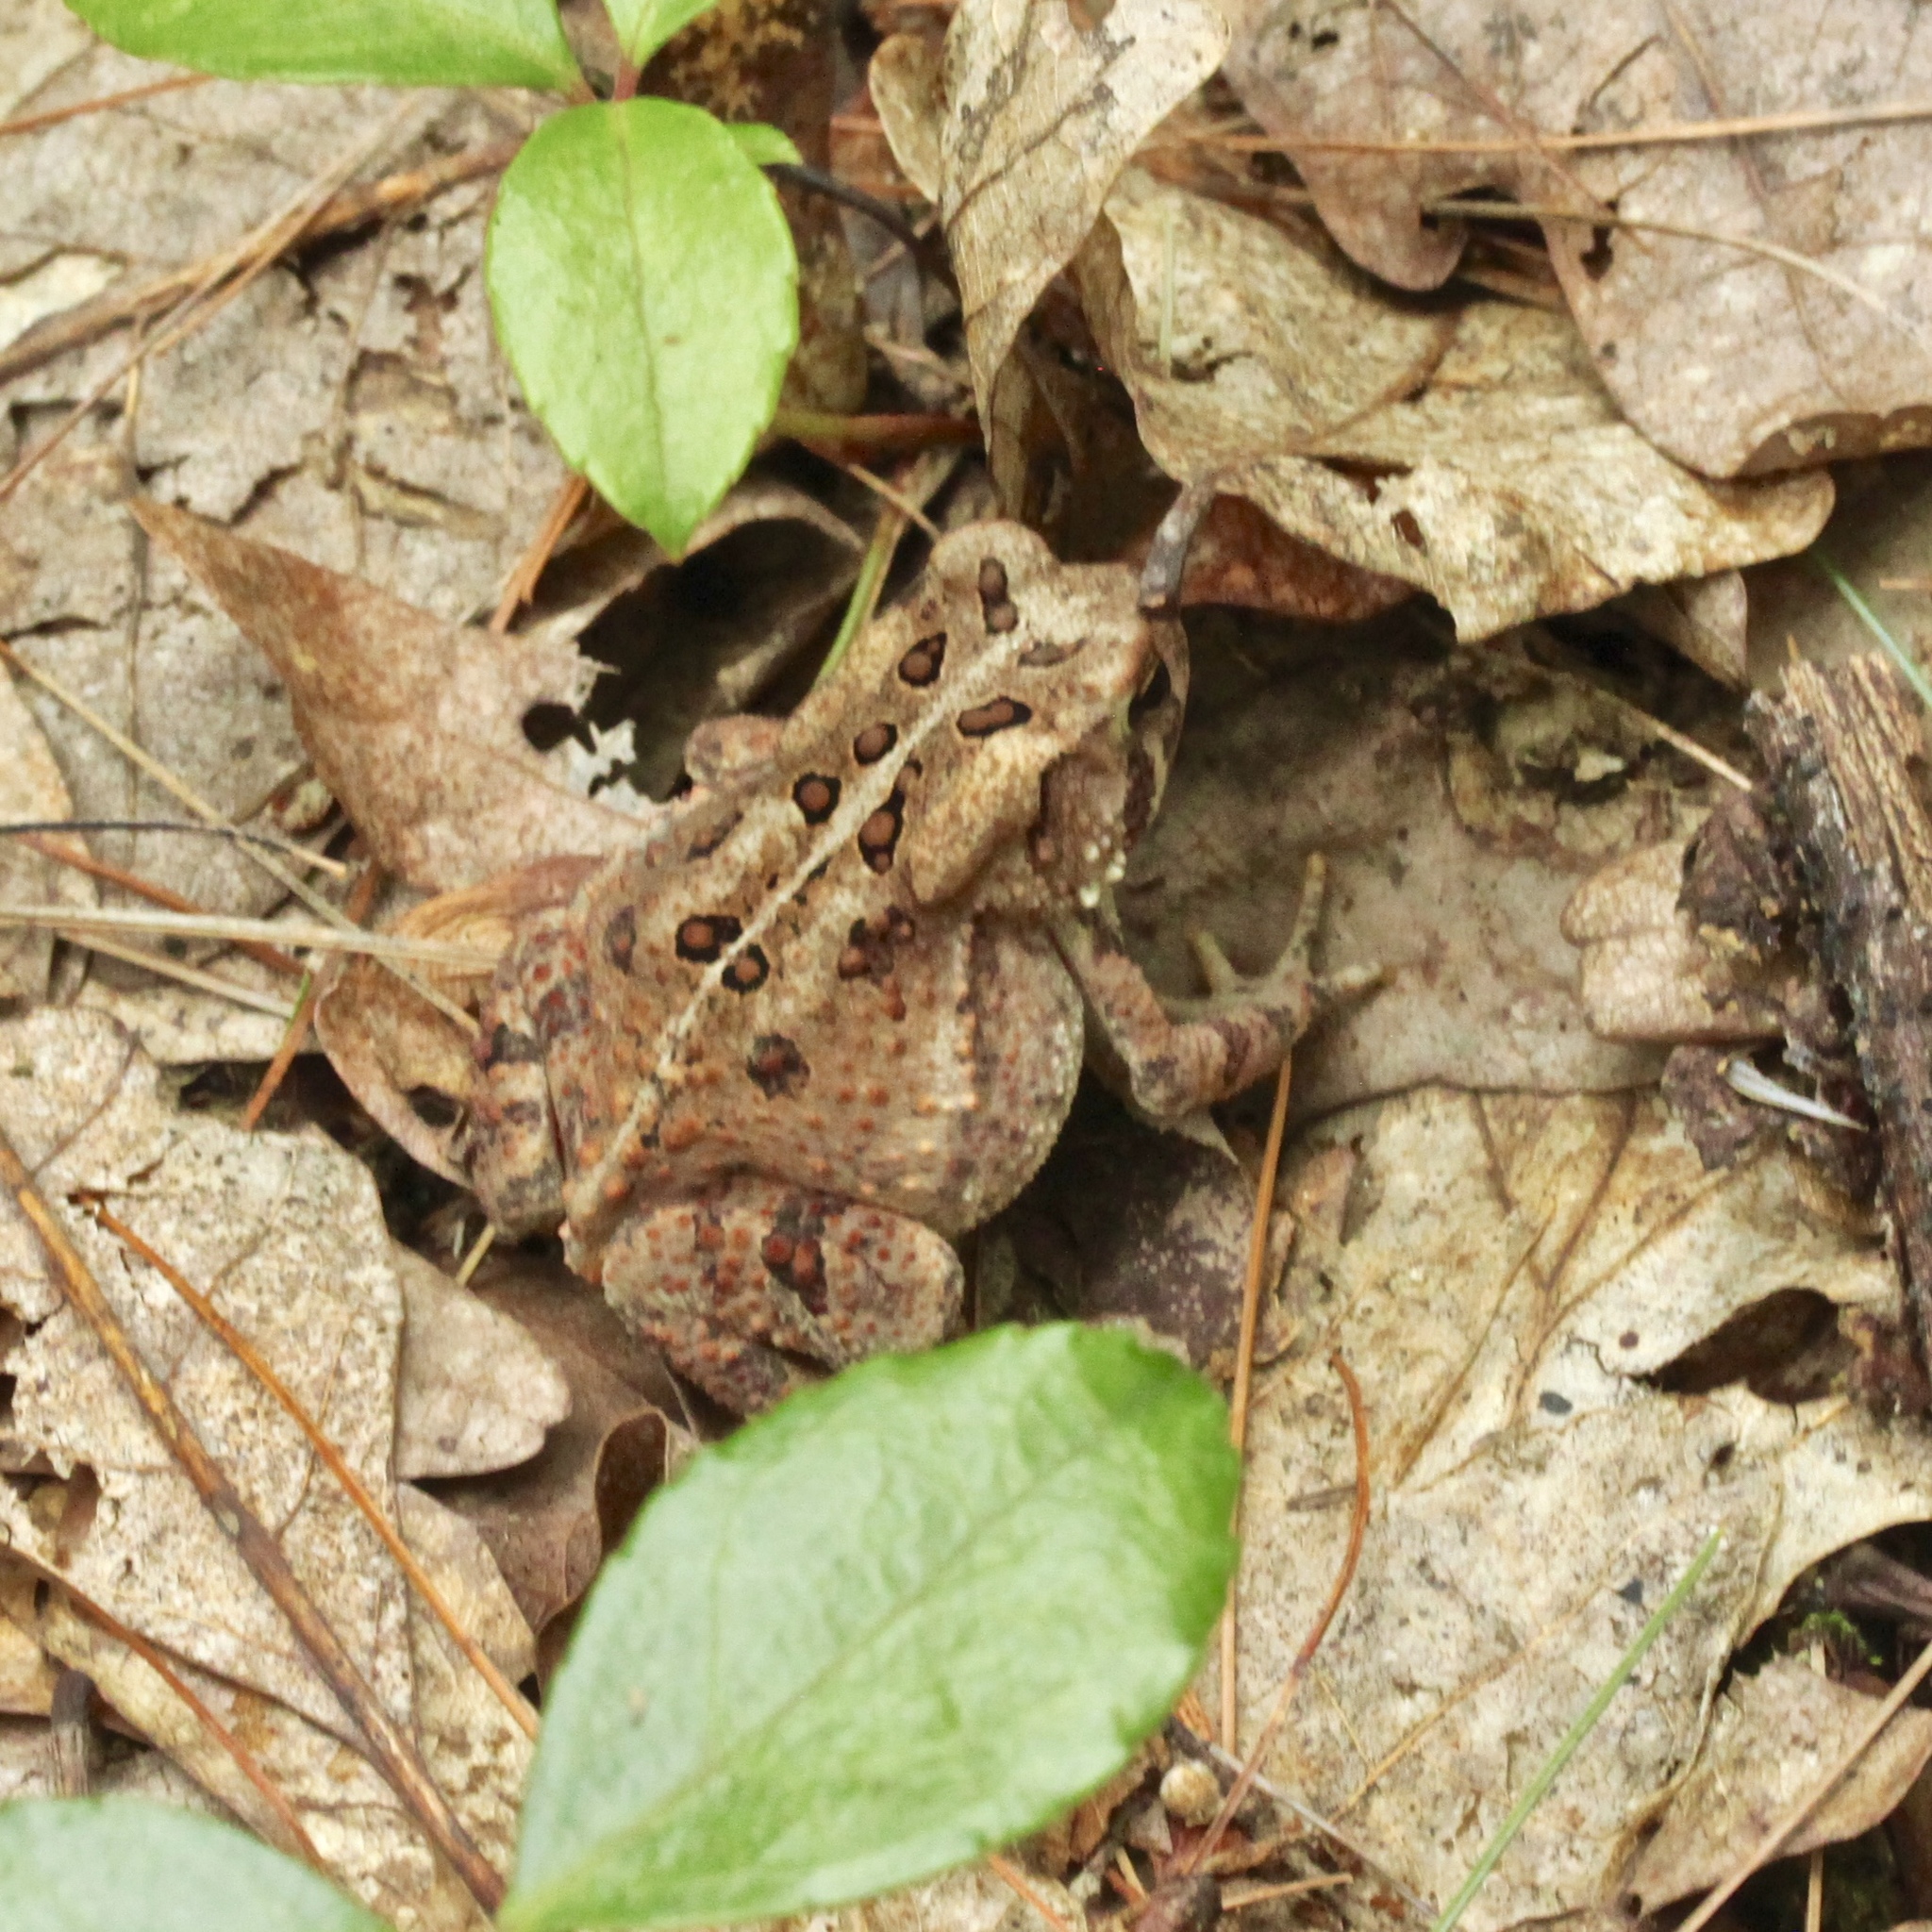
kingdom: Animalia
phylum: Chordata
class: Amphibia
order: Anura
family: Bufonidae
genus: Anaxyrus
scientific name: Anaxyrus americanus
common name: American toad
